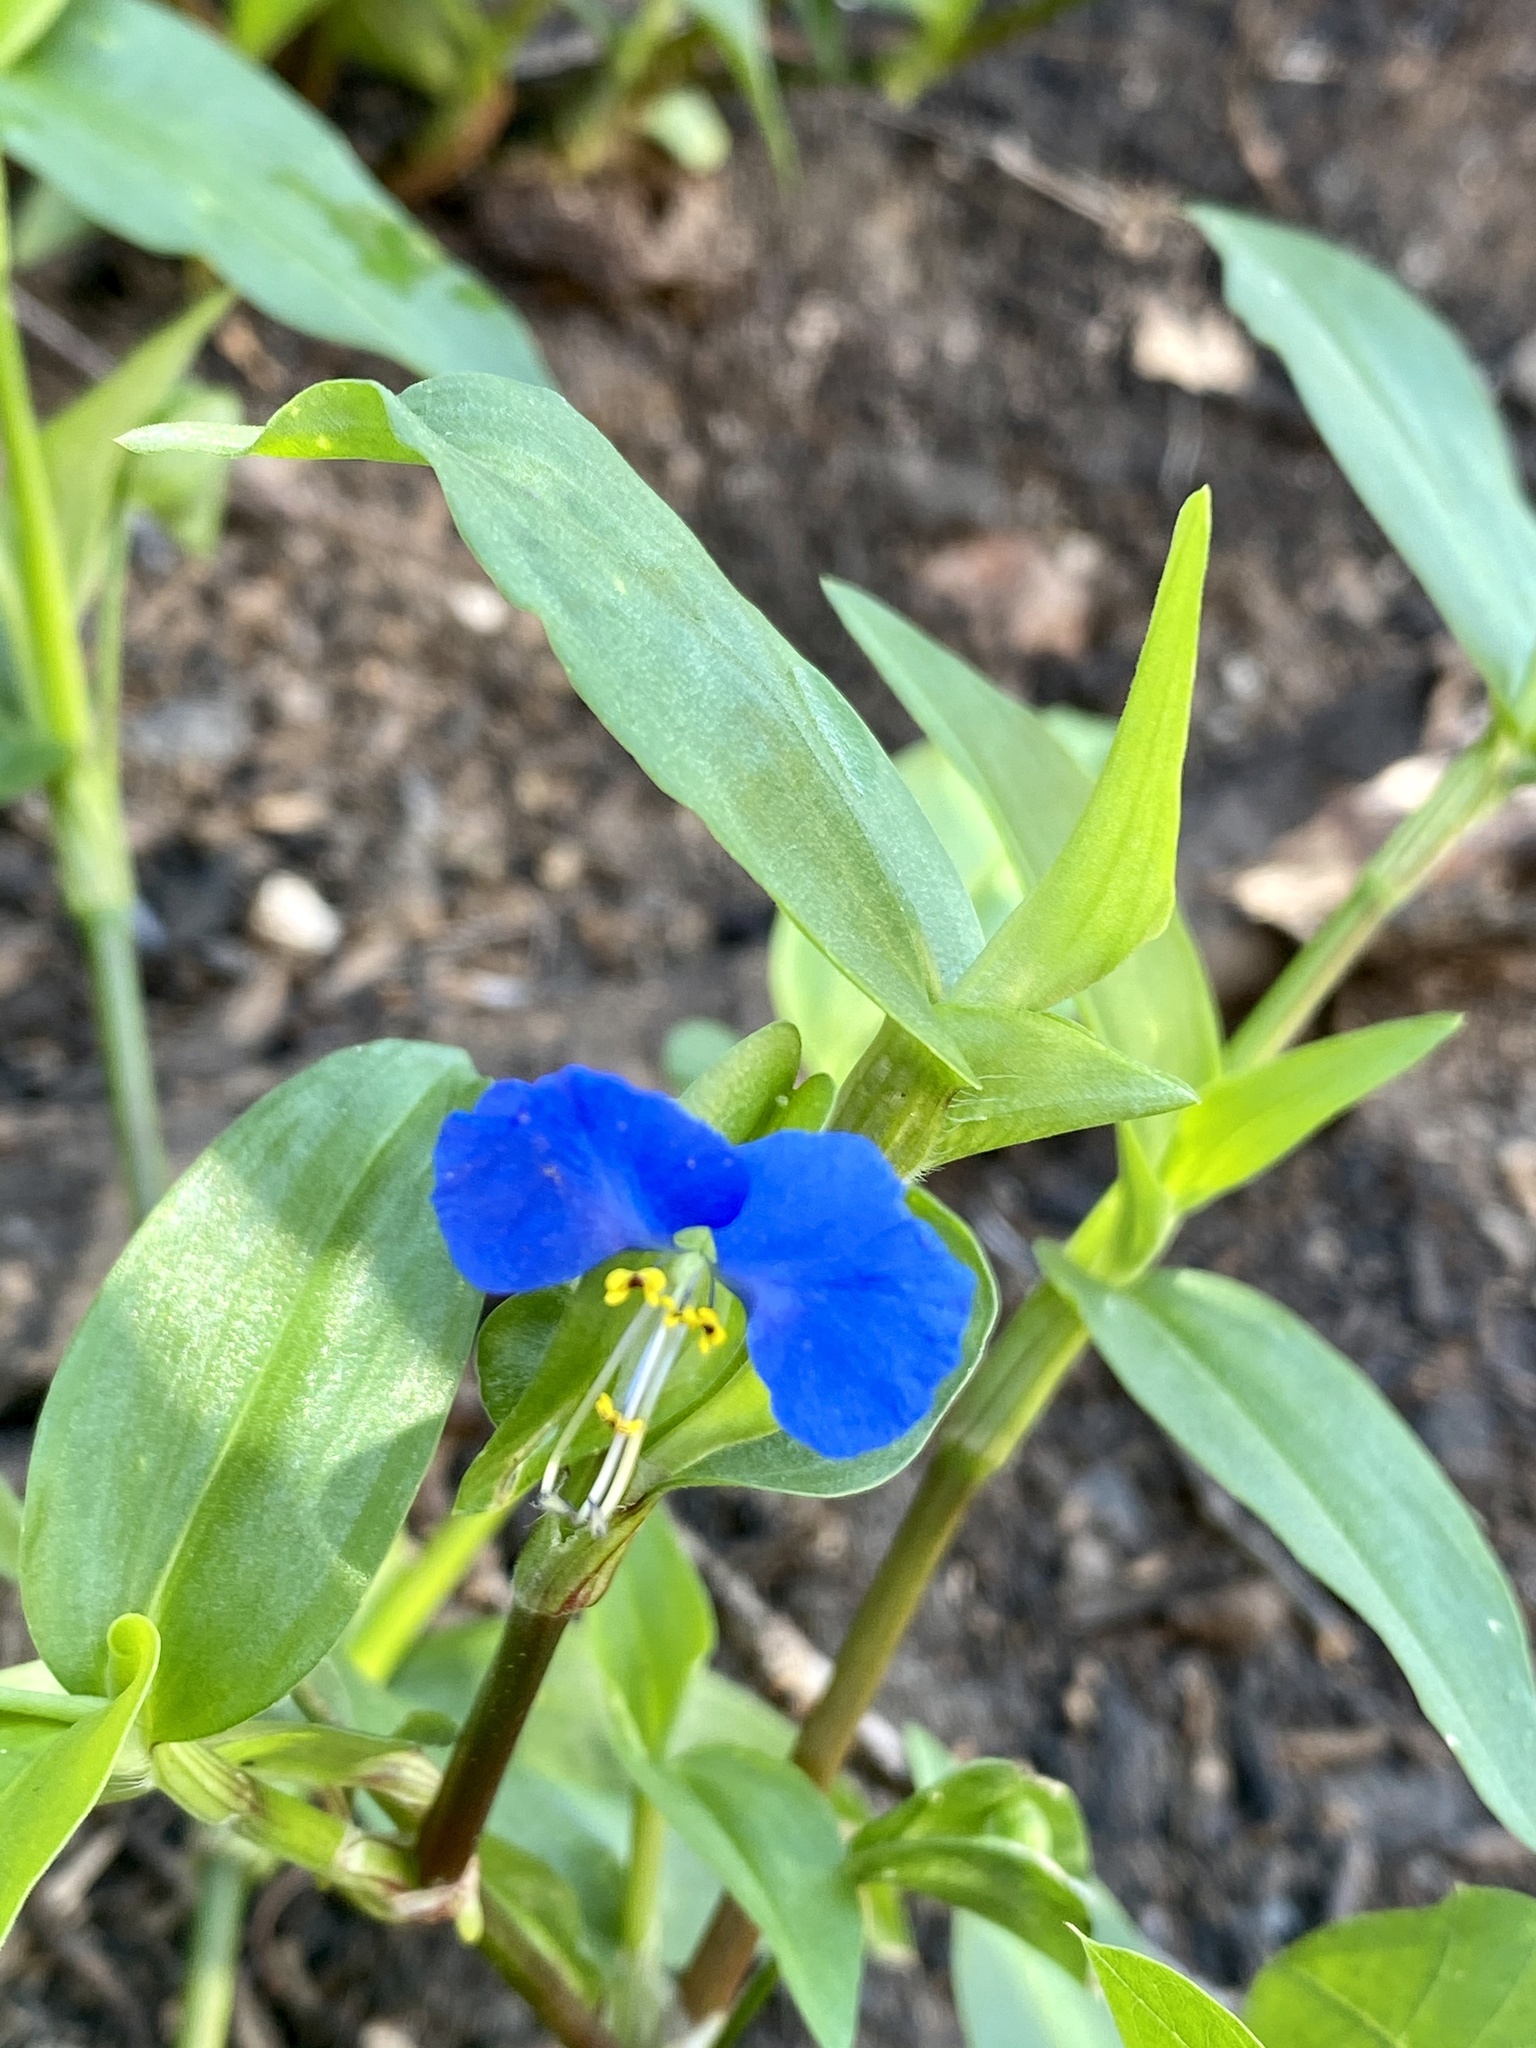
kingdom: Plantae
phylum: Tracheophyta
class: Liliopsida
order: Commelinales
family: Commelinaceae
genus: Commelina
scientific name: Commelina communis
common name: Asiatic dayflower
